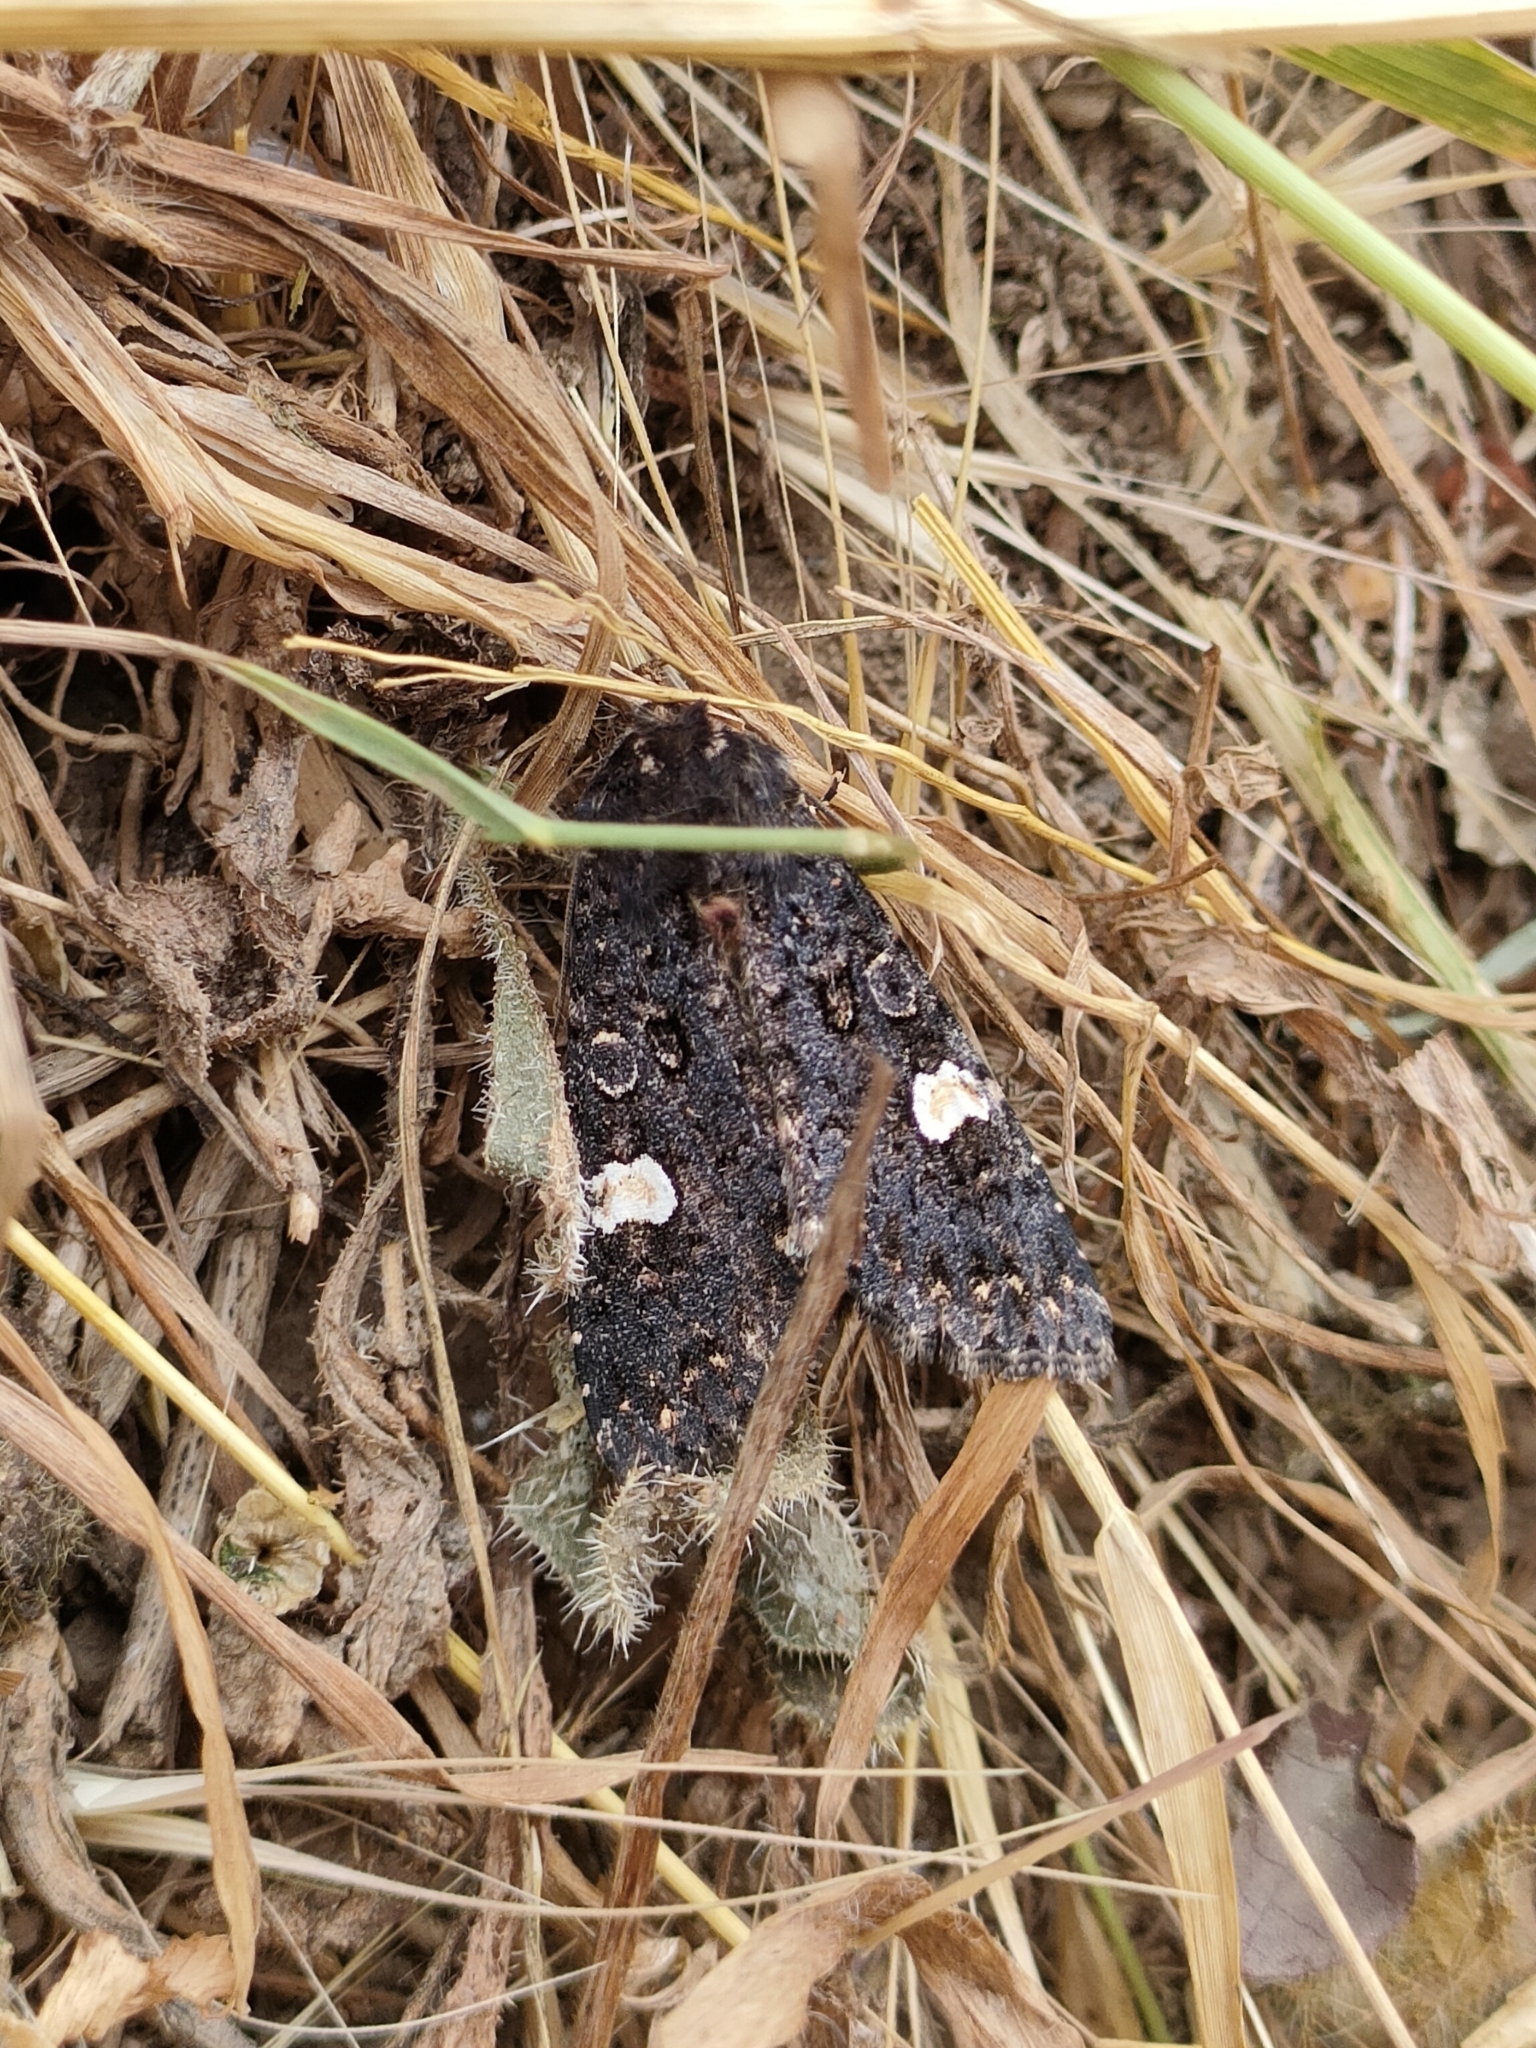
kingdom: Animalia
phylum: Arthropoda
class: Insecta
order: Lepidoptera
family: Noctuidae
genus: Melanchra
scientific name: Melanchra persicariae
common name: Dot moth
